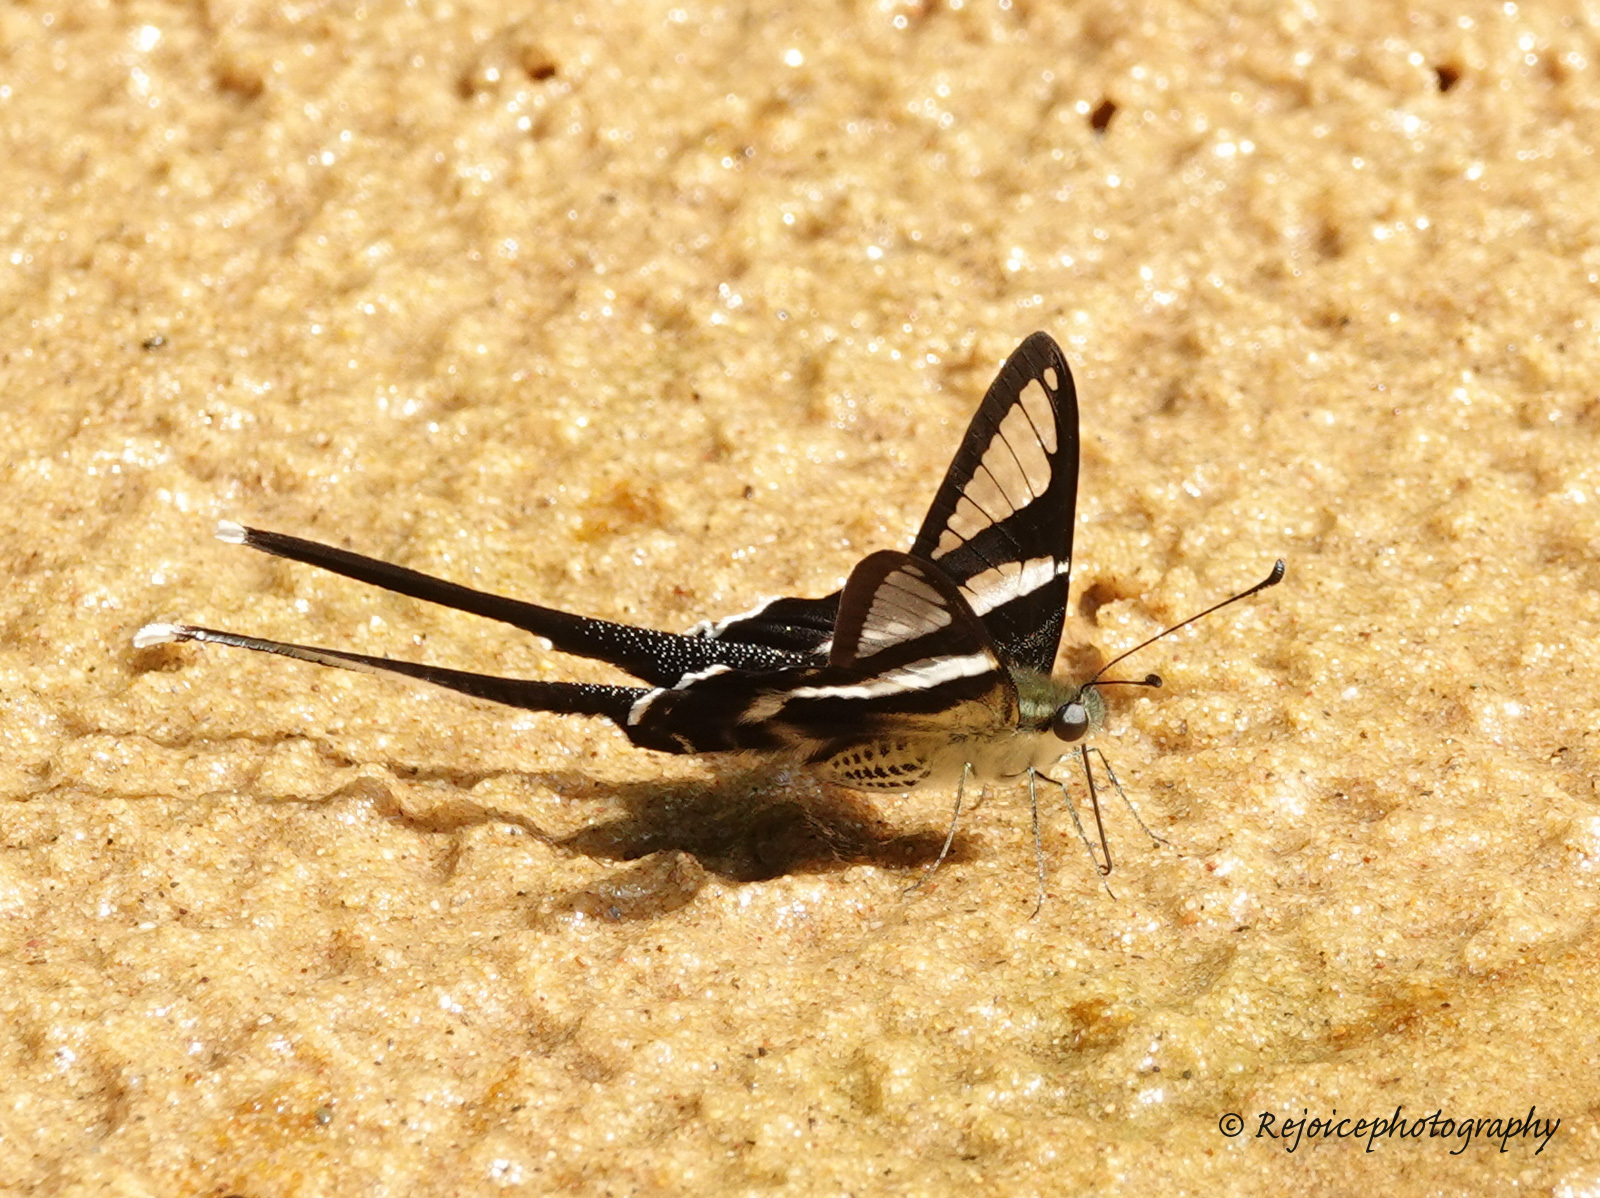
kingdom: Animalia
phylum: Arthropoda
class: Insecta
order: Lepidoptera
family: Papilionidae
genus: Lamproptera
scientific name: Lamproptera curius
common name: White dragontail
